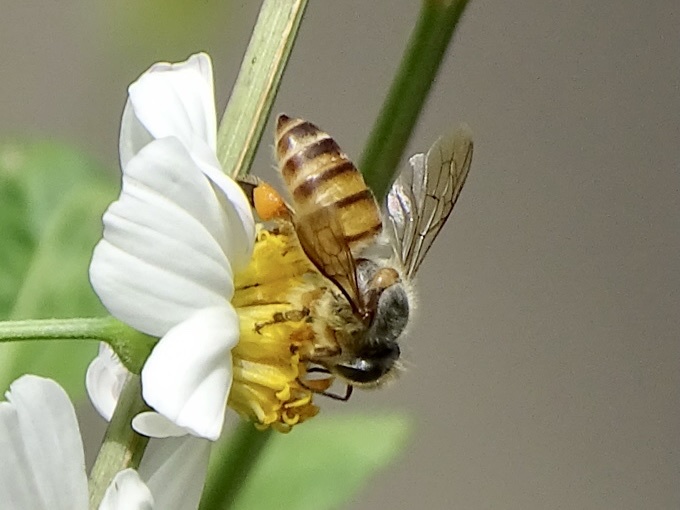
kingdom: Animalia
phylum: Arthropoda
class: Insecta
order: Hymenoptera
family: Apidae
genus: Apis
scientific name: Apis cerana
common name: Honey bee
